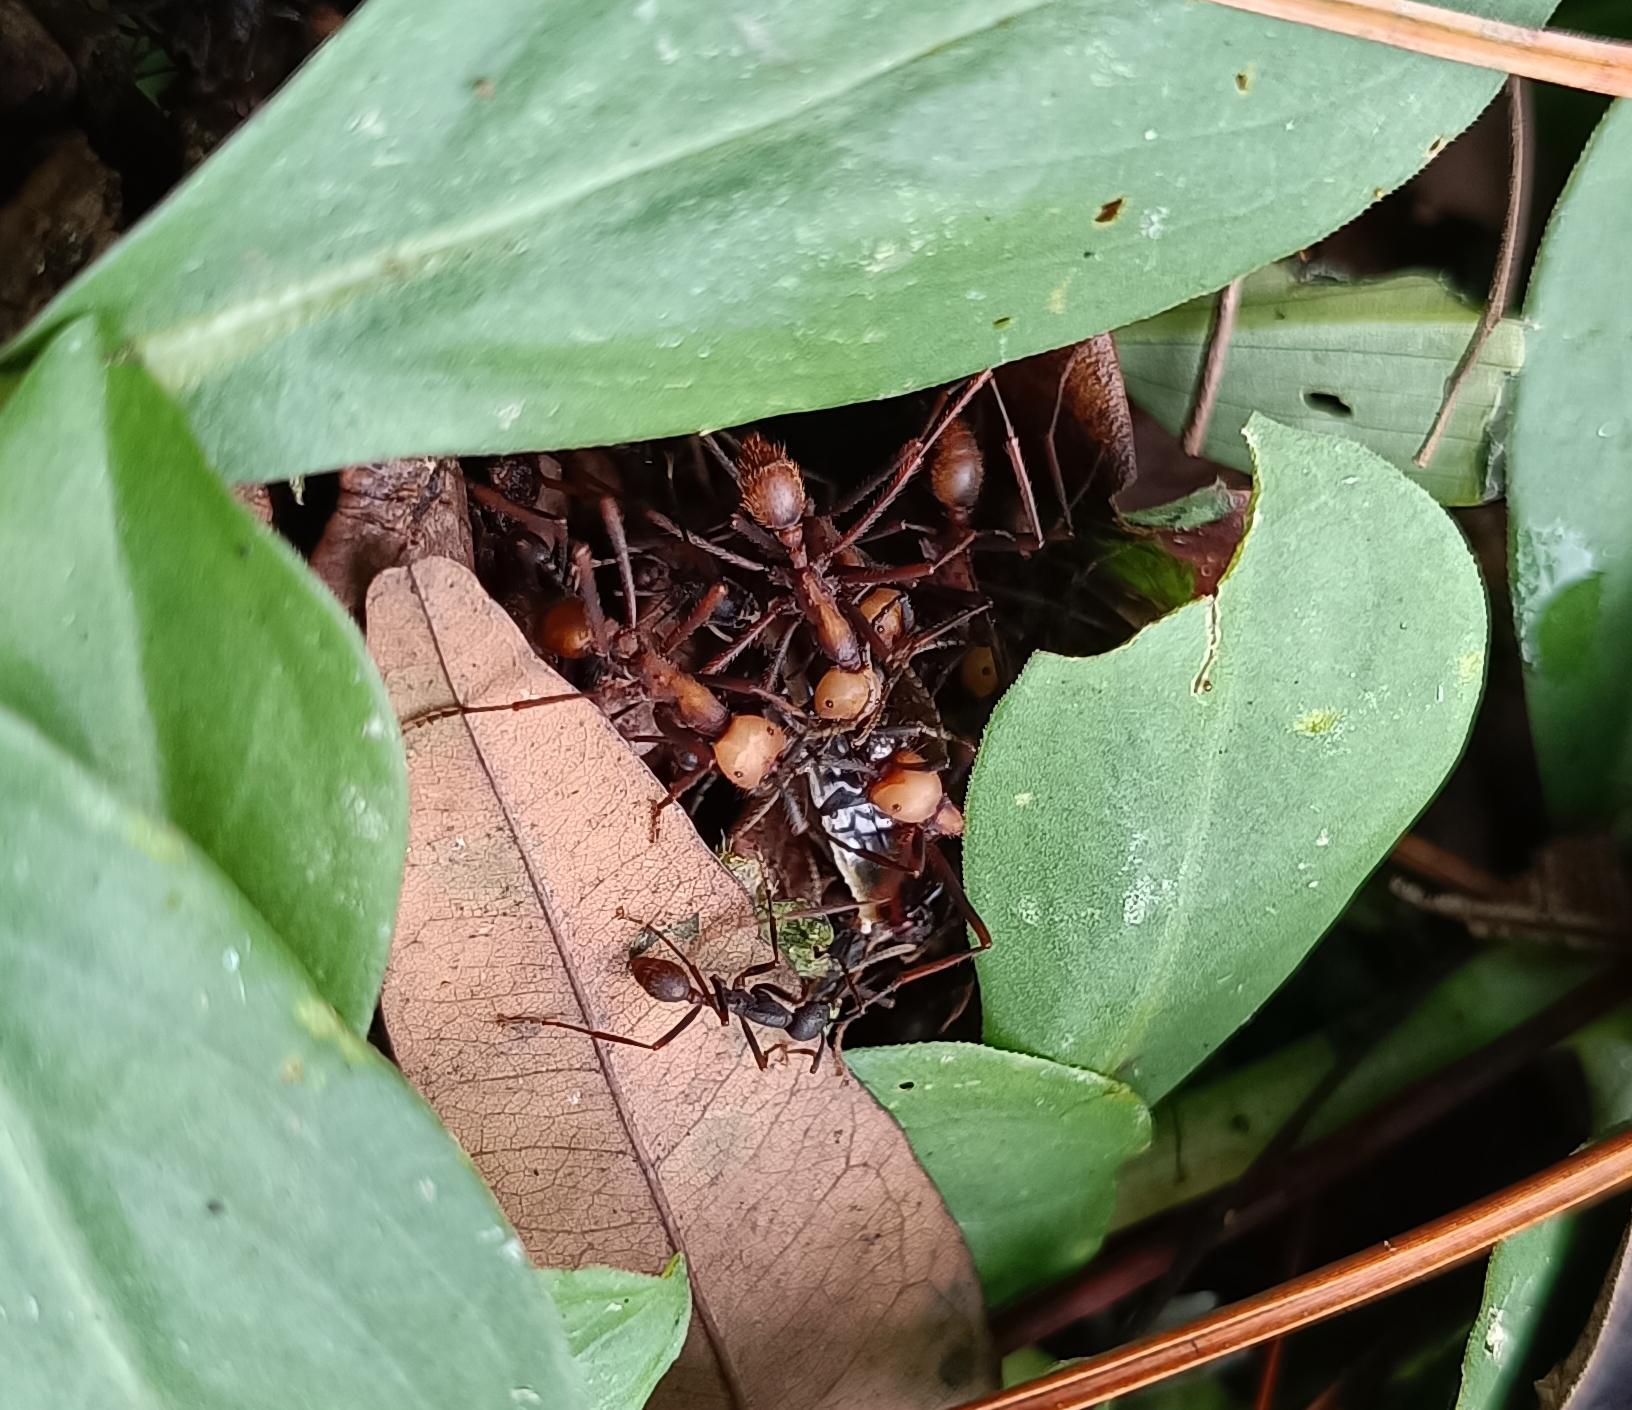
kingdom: Animalia
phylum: Arthropoda
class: Insecta
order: Hymenoptera
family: Formicidae
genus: Eciton
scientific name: Eciton burchellii
